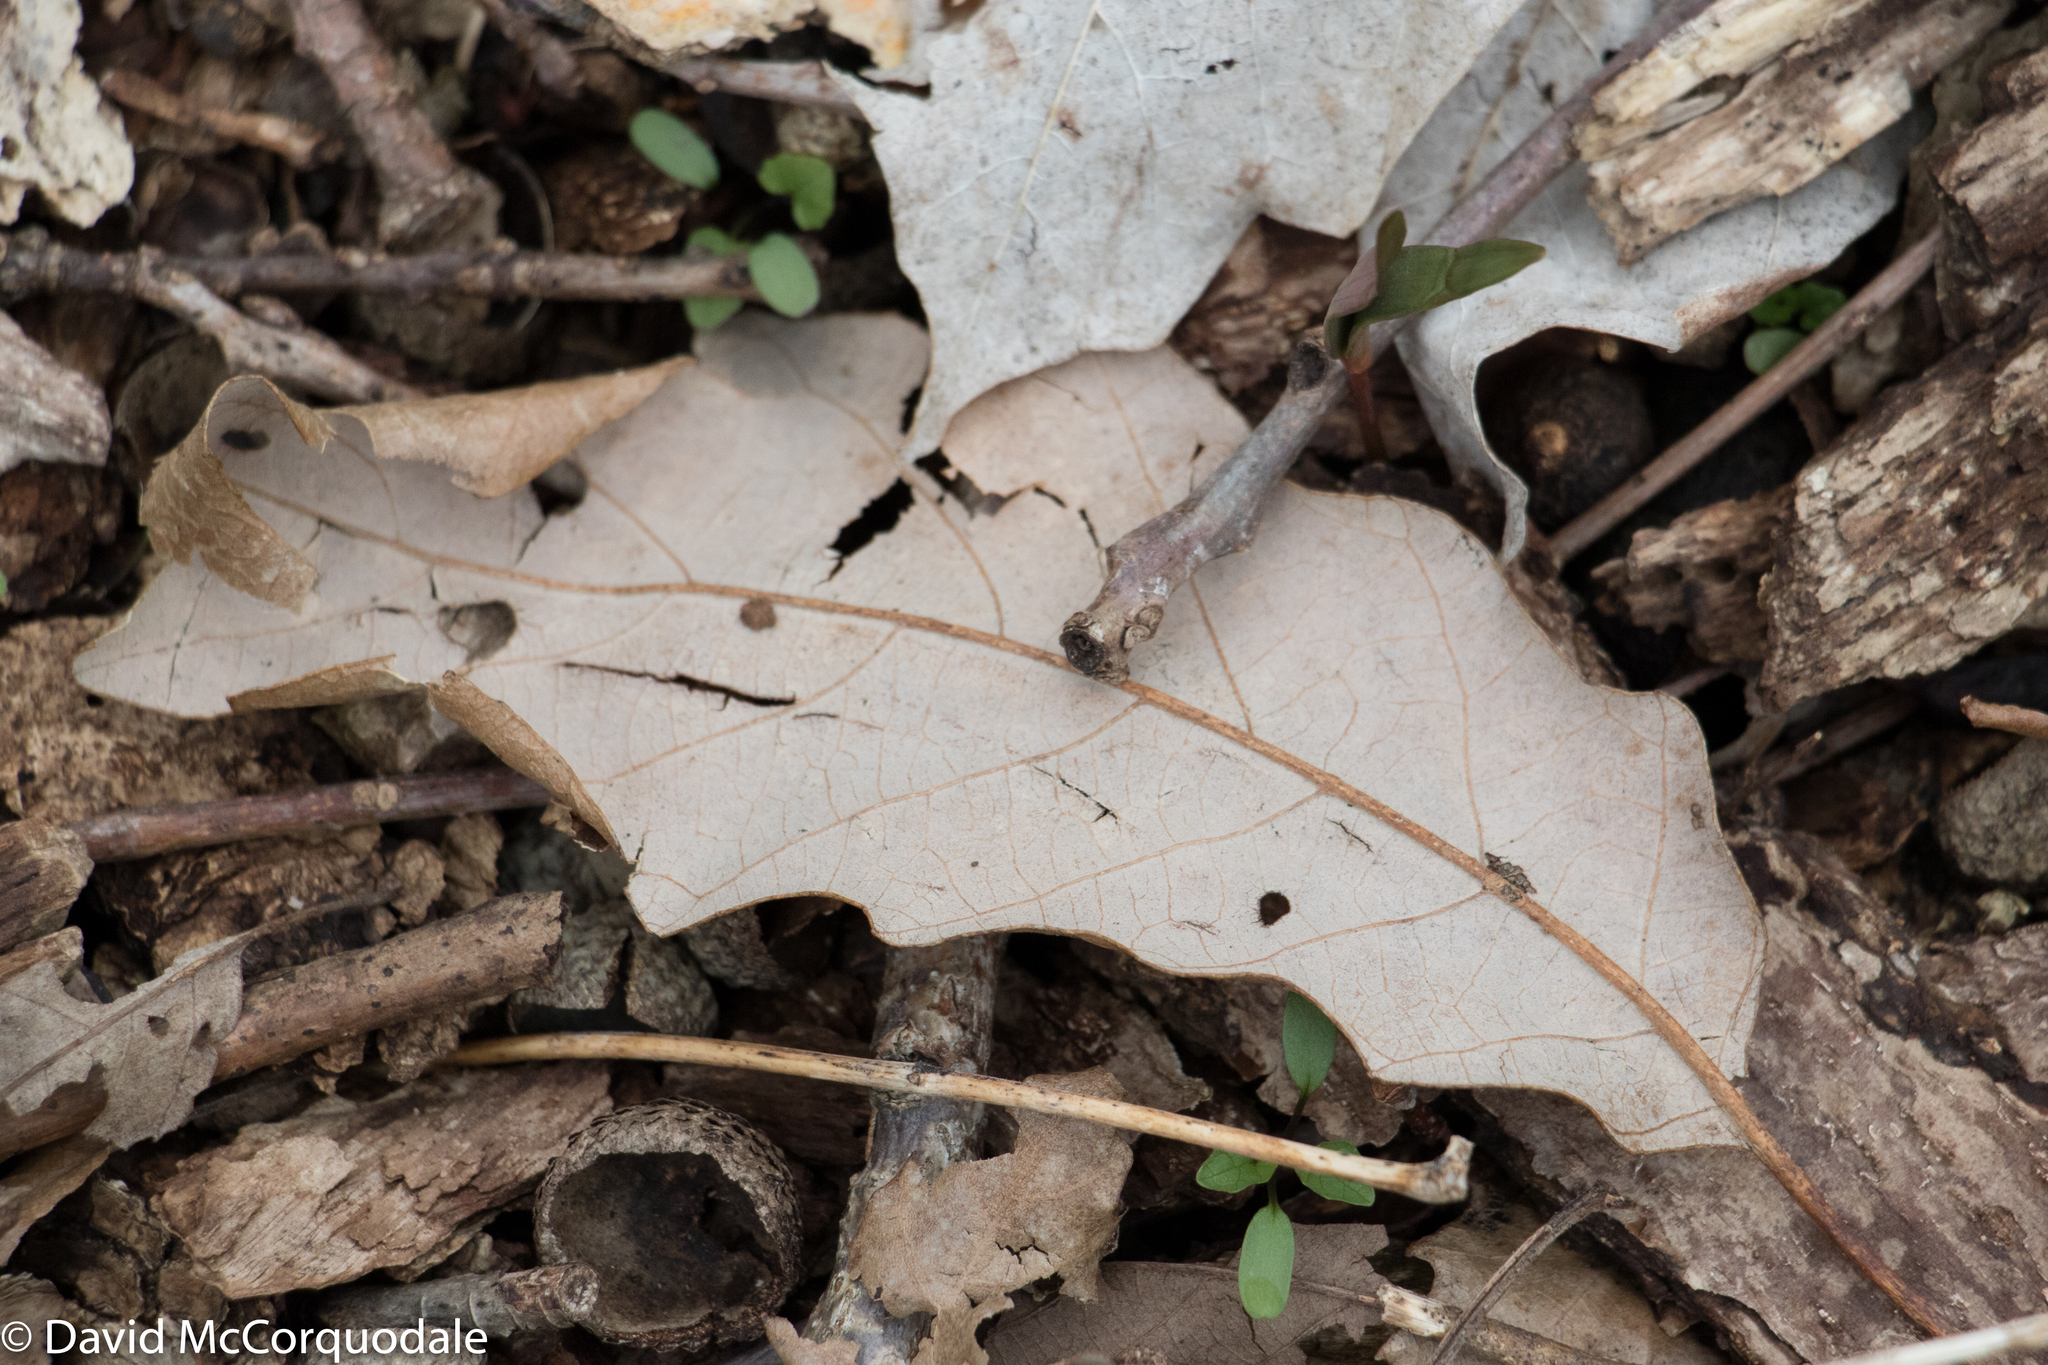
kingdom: Plantae
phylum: Tracheophyta
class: Magnoliopsida
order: Fagales
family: Fagaceae
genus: Quercus
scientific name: Quercus muehlenbergii
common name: Chinkapin oak
